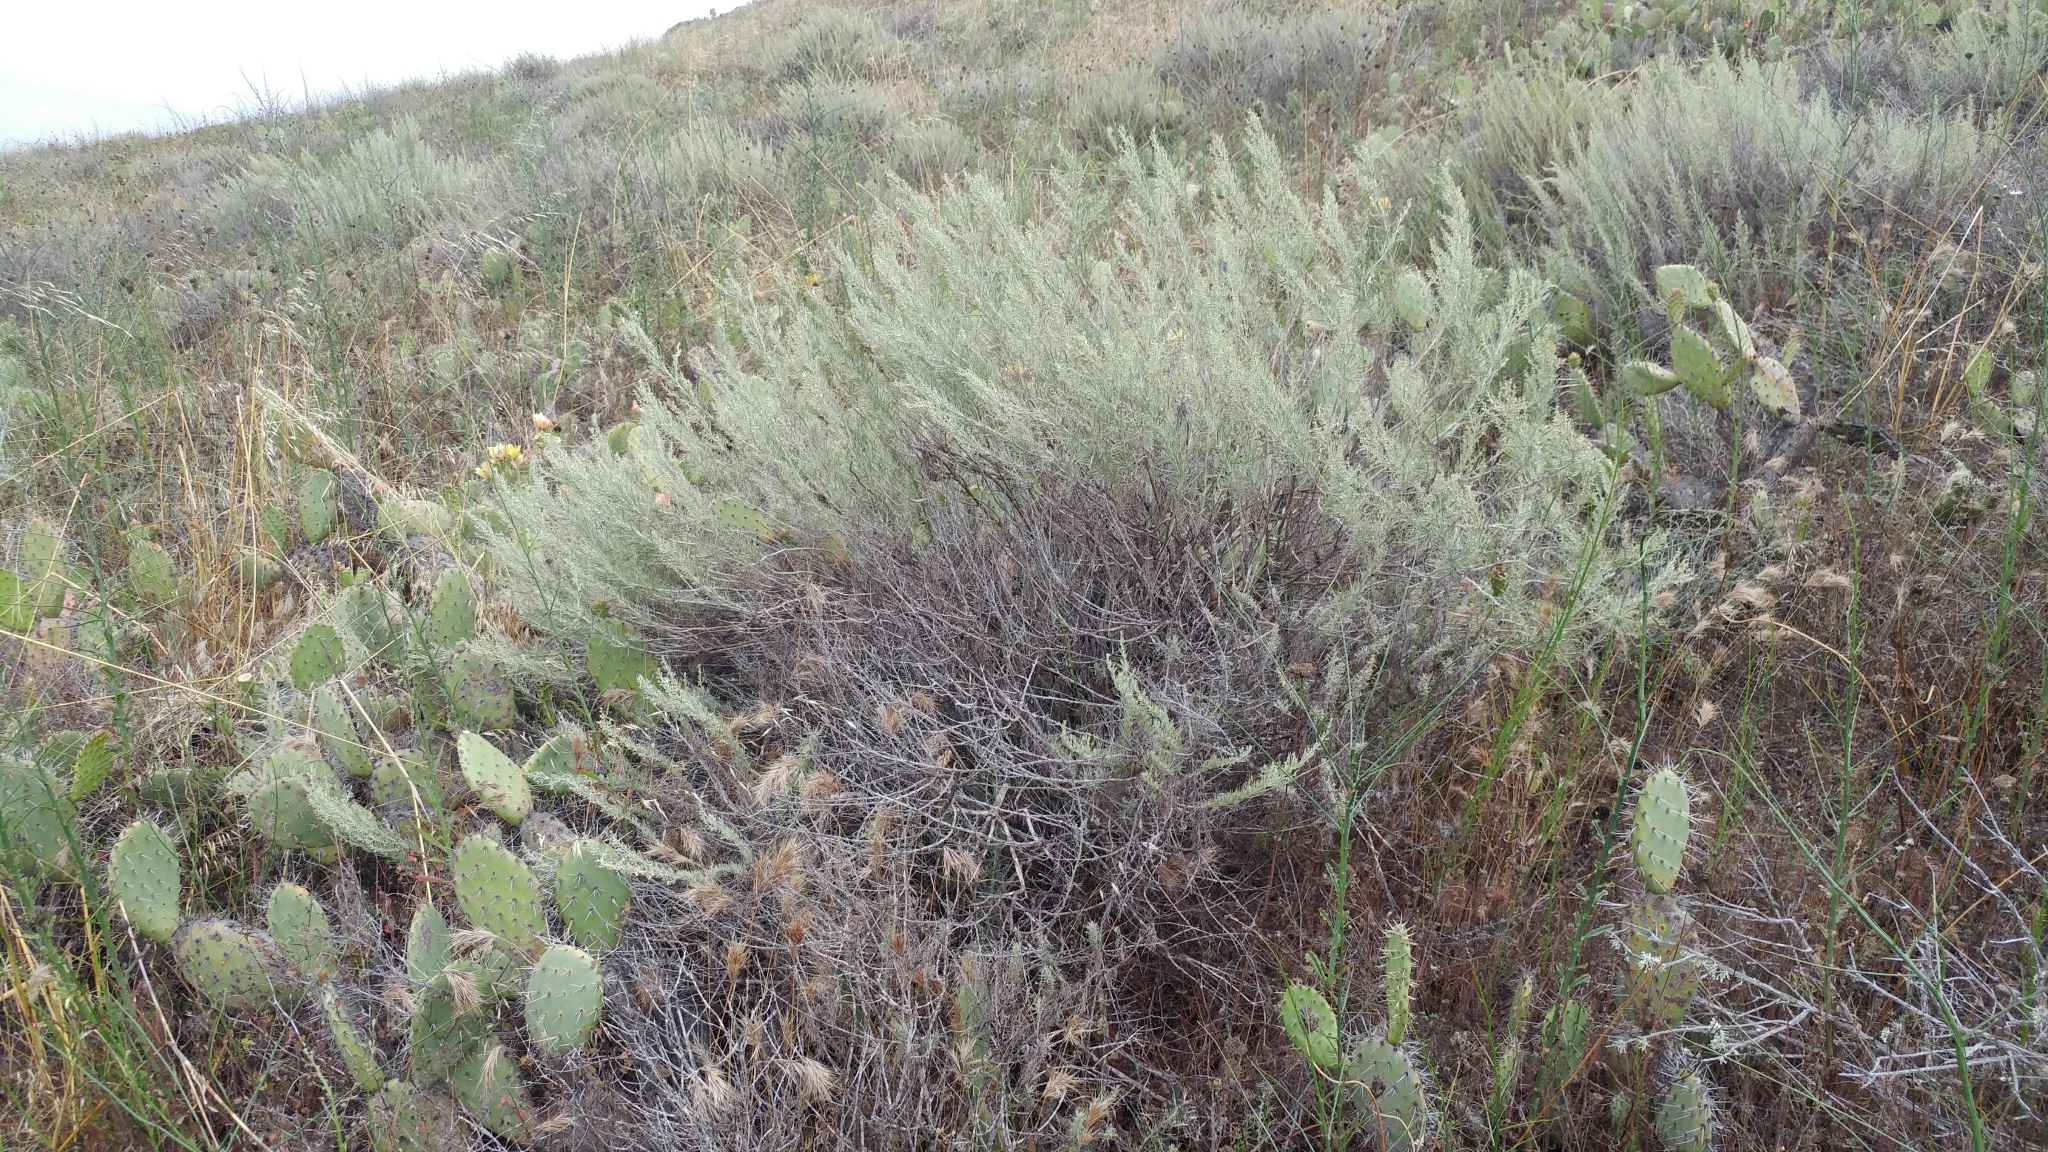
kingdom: Plantae
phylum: Tracheophyta
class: Magnoliopsida
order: Asterales
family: Asteraceae
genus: Artemisia
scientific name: Artemisia californica
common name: California sagebrush
